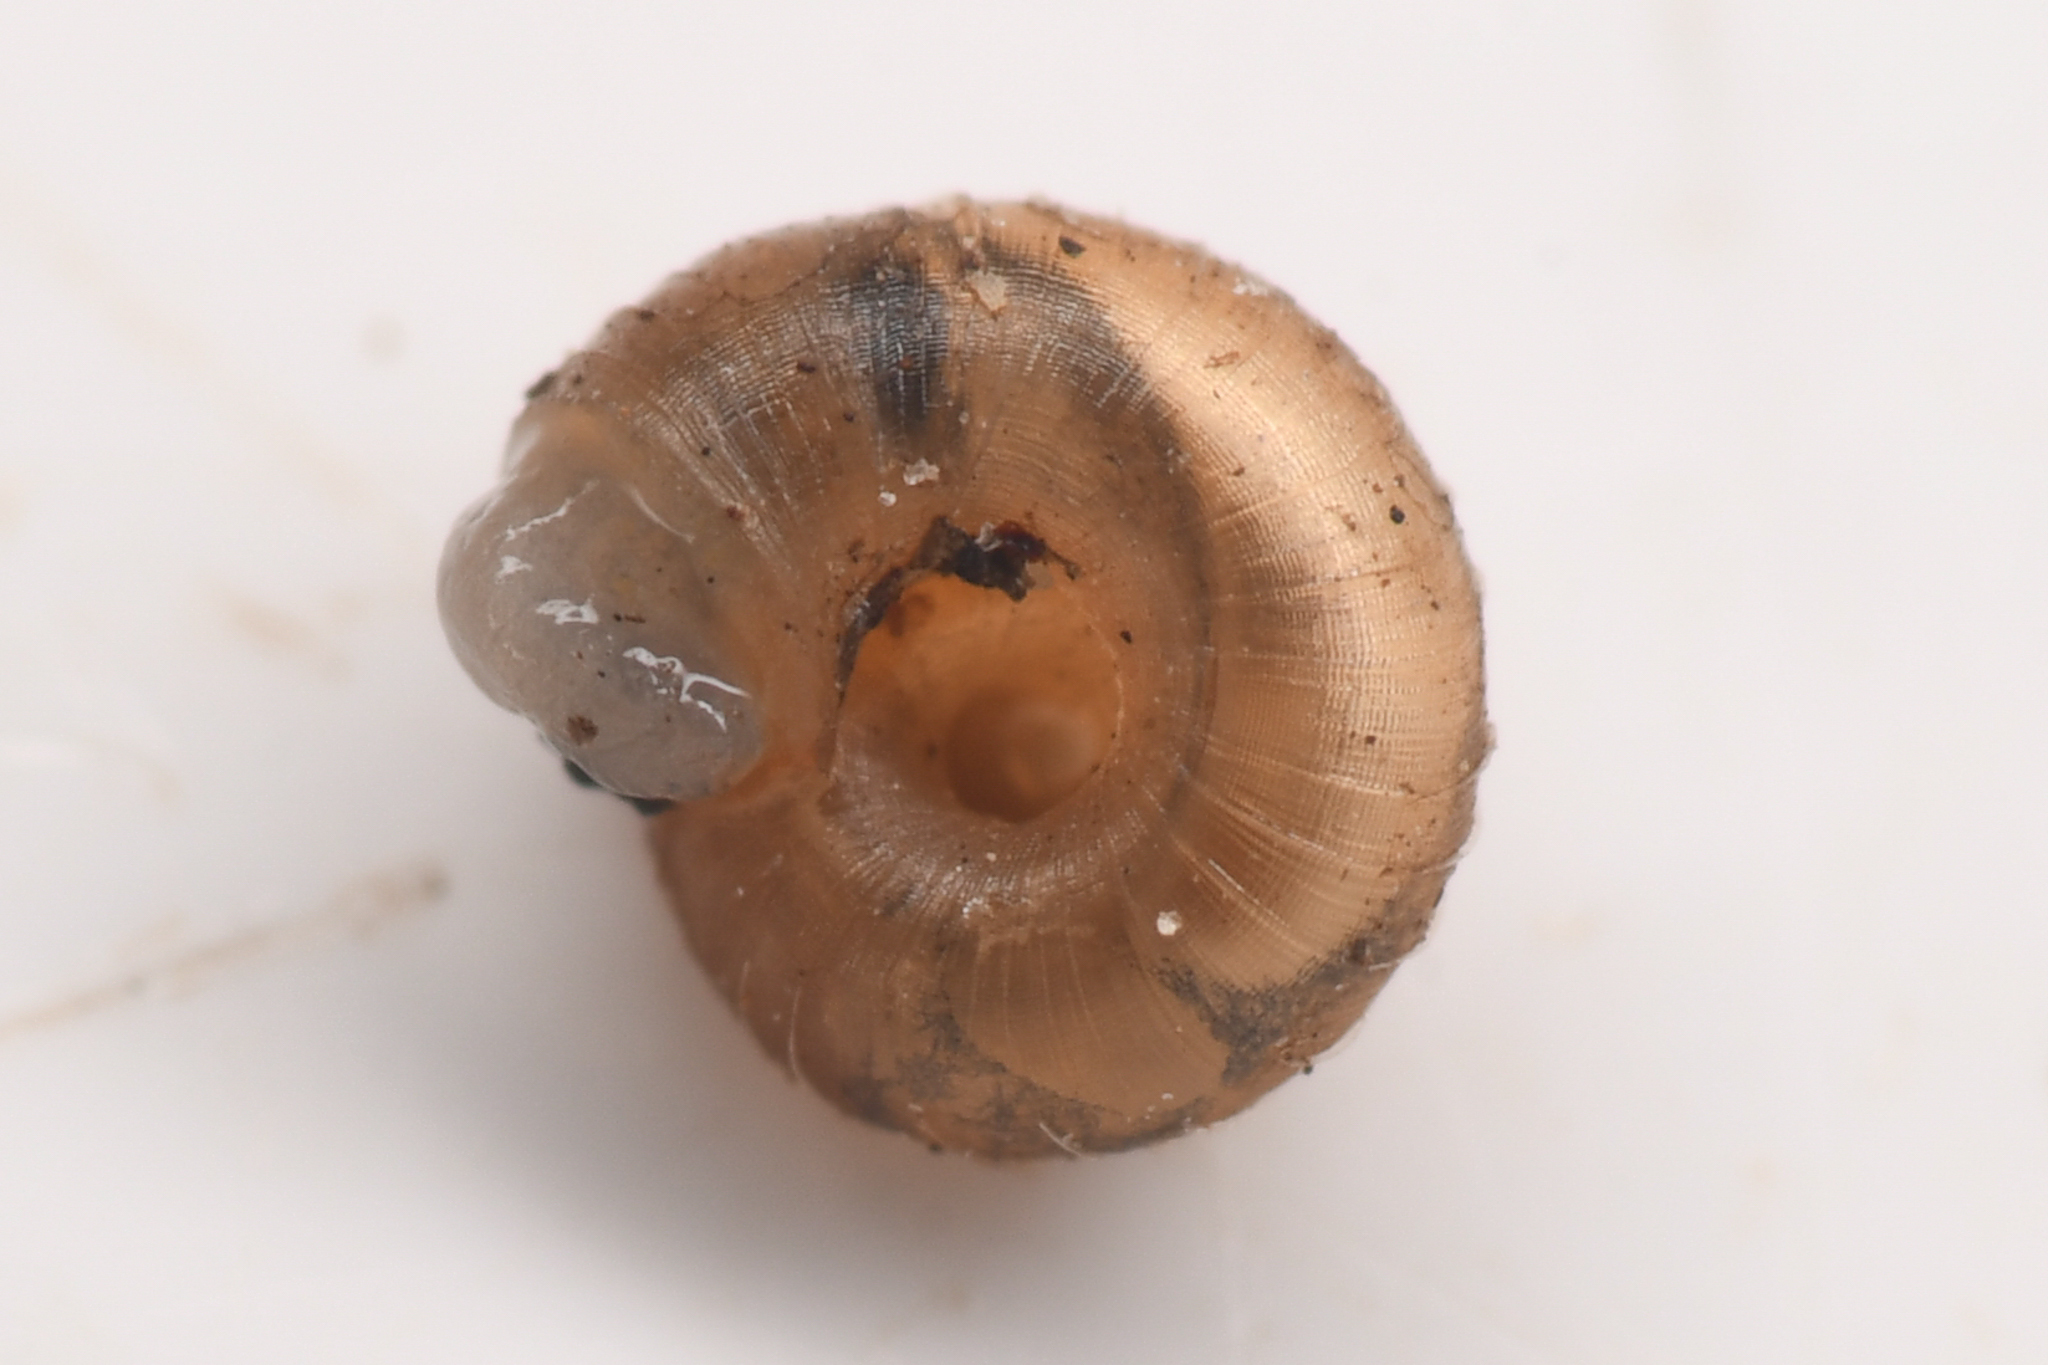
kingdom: Animalia
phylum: Mollusca
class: Gastropoda
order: Stylommatophora
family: Punctidae
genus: Paralaoma
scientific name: Paralaoma servilis
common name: Pinhead spot
